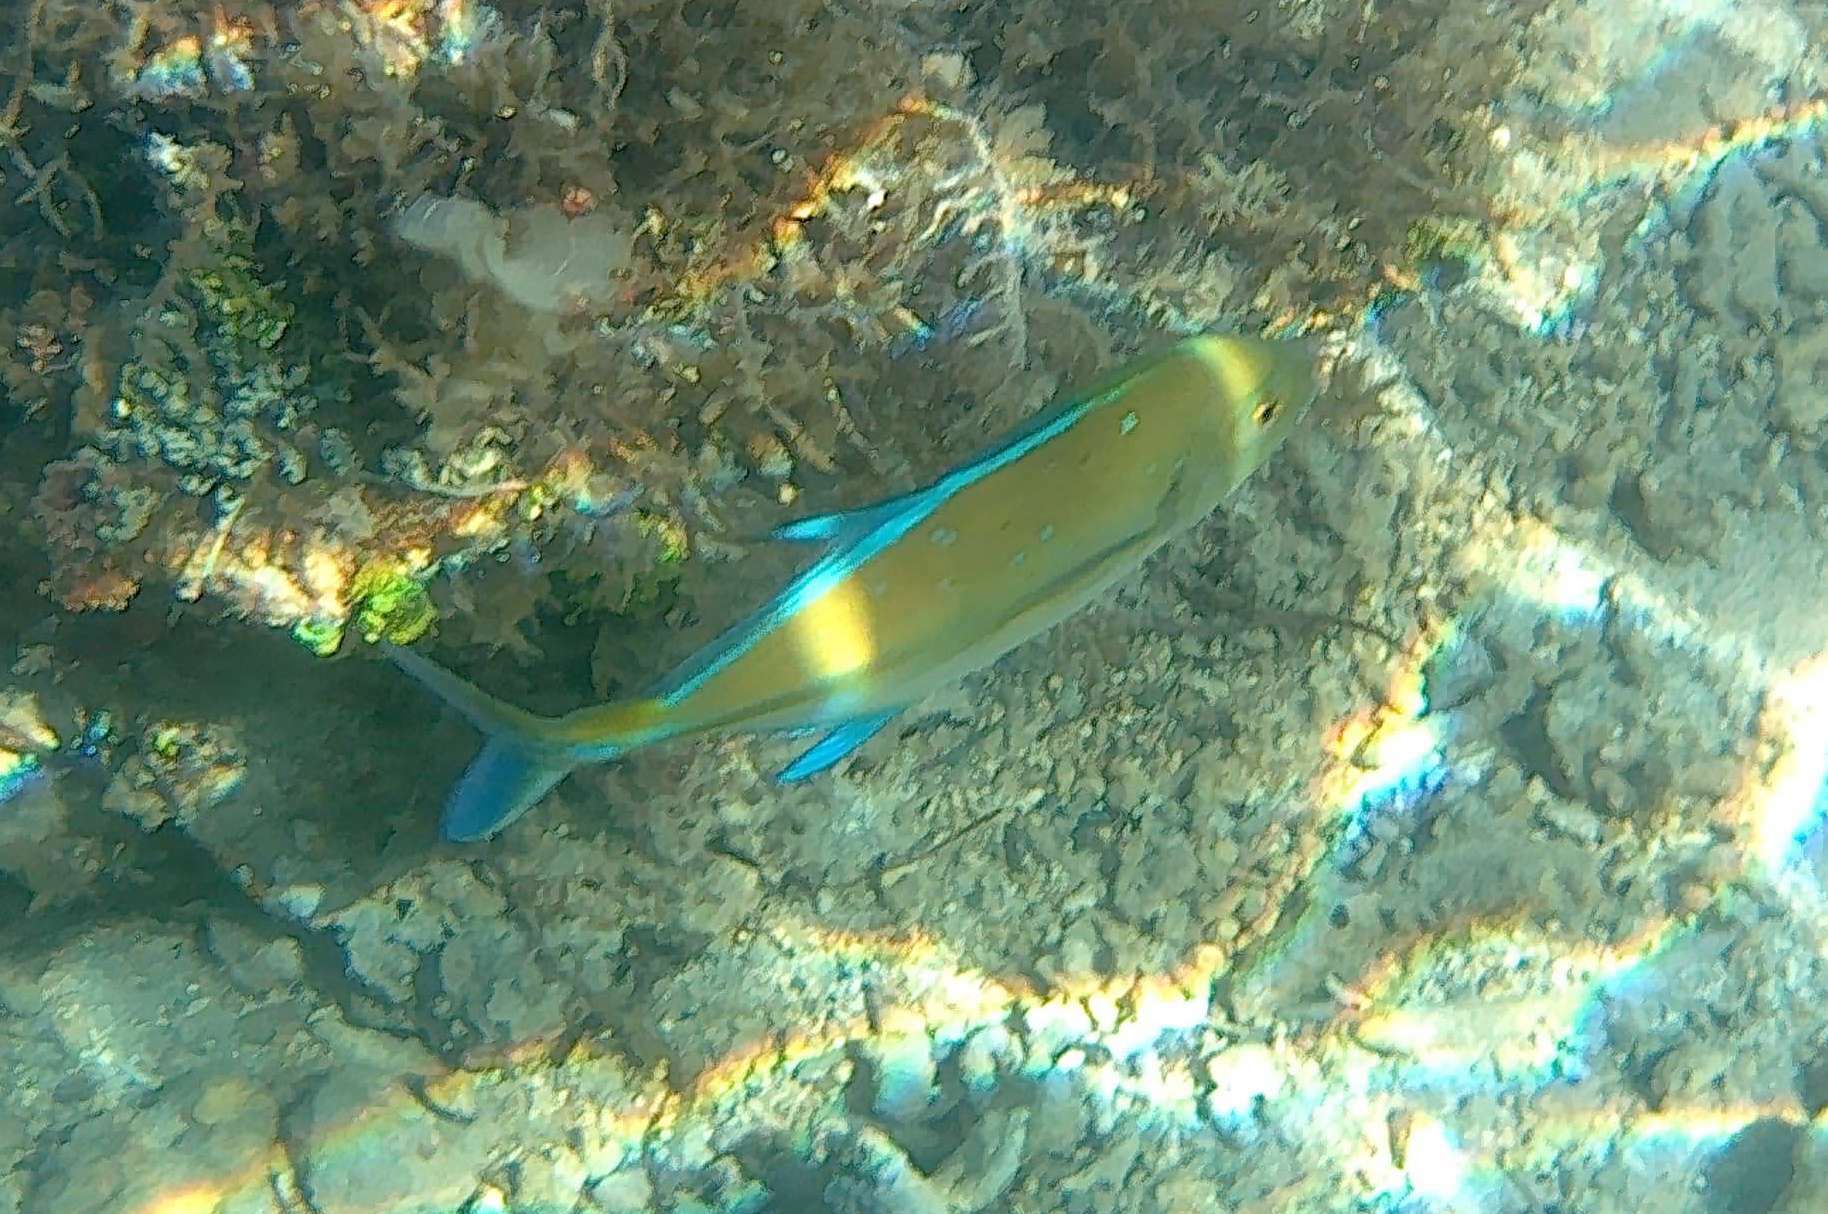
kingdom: Animalia
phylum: Chordata
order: Perciformes
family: Carangidae
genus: Caranx
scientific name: Caranx melampygus
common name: Bluefin trevally
